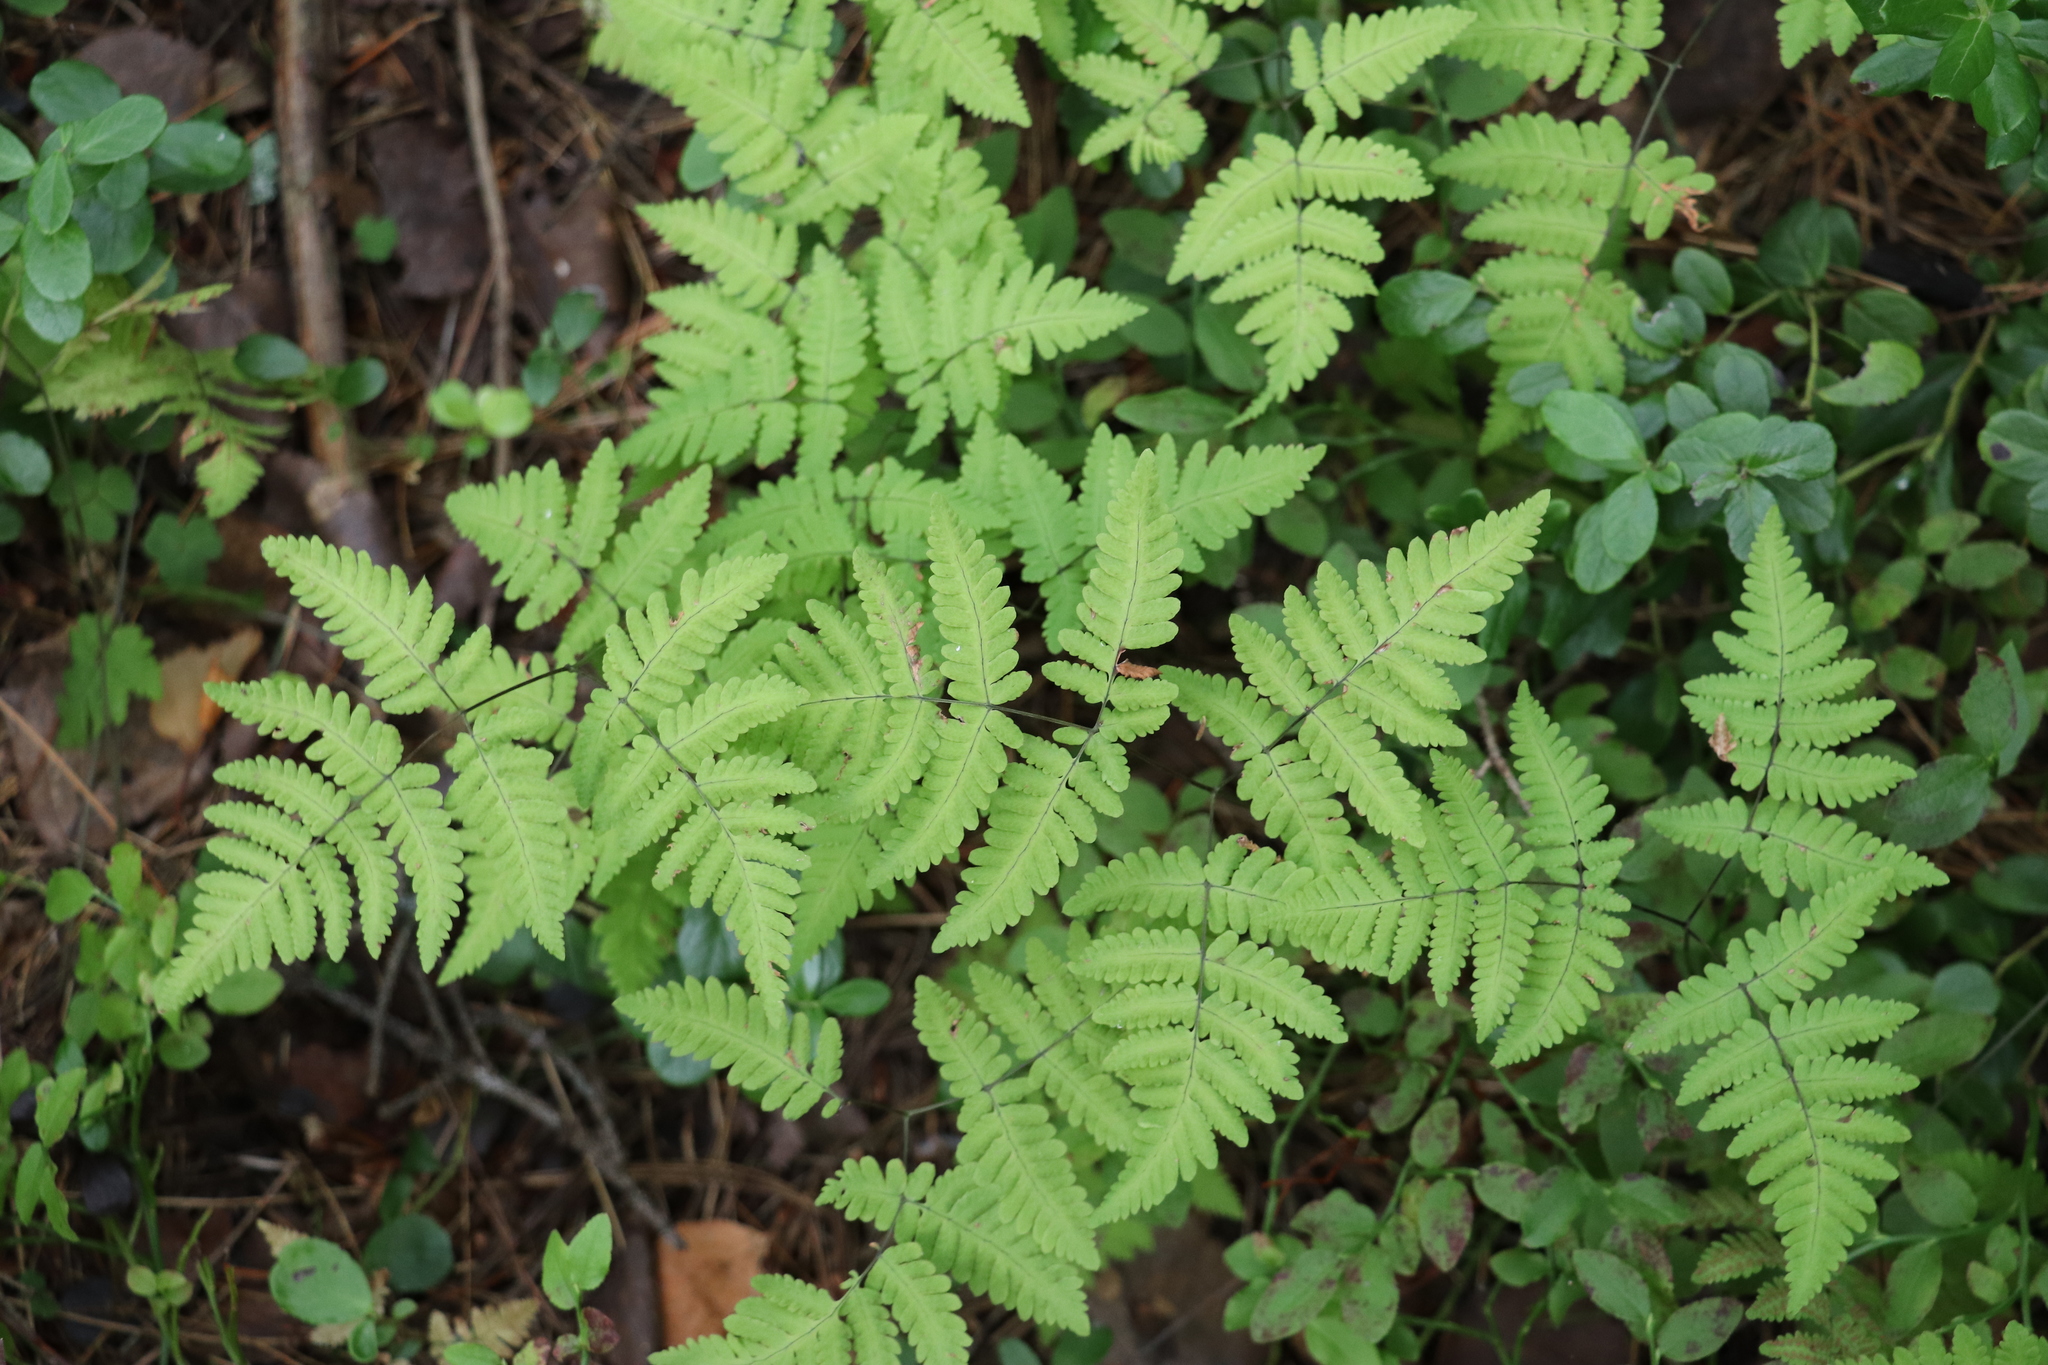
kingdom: Plantae
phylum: Tracheophyta
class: Polypodiopsida
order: Polypodiales
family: Cystopteridaceae
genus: Gymnocarpium
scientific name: Gymnocarpium dryopteris
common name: Oak fern
